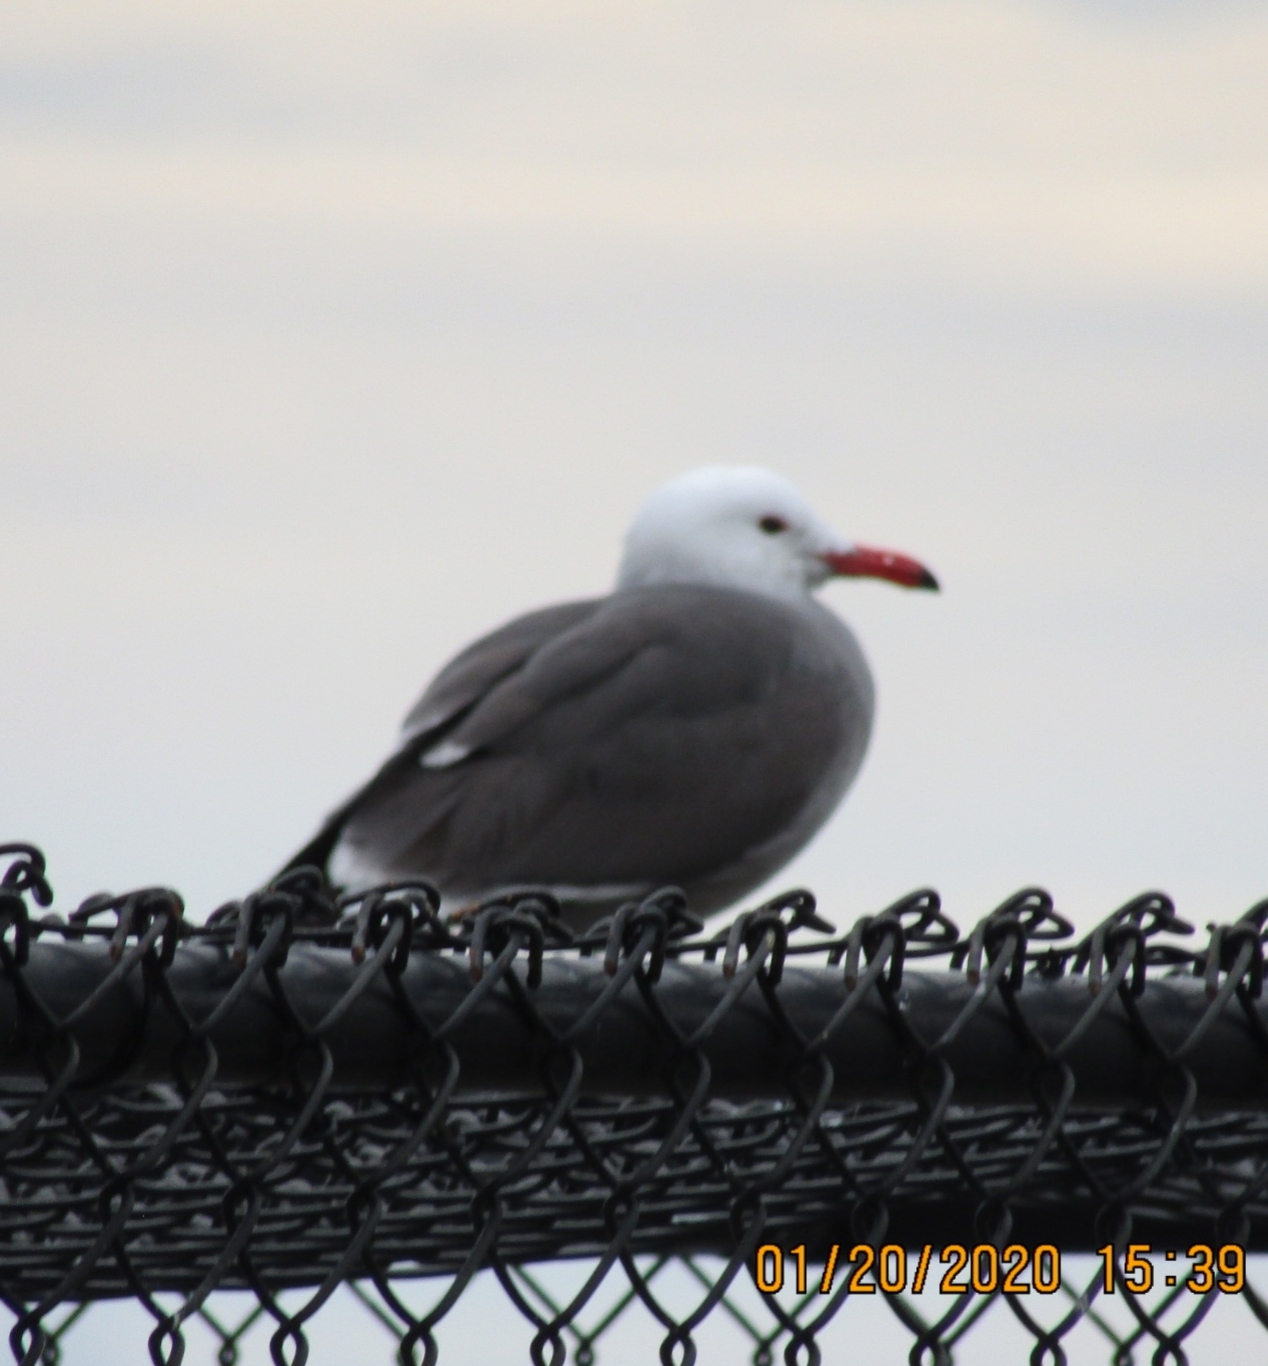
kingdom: Animalia
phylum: Chordata
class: Aves
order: Charadriiformes
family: Laridae
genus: Larus
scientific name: Larus heermanni
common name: Heermann's gull
